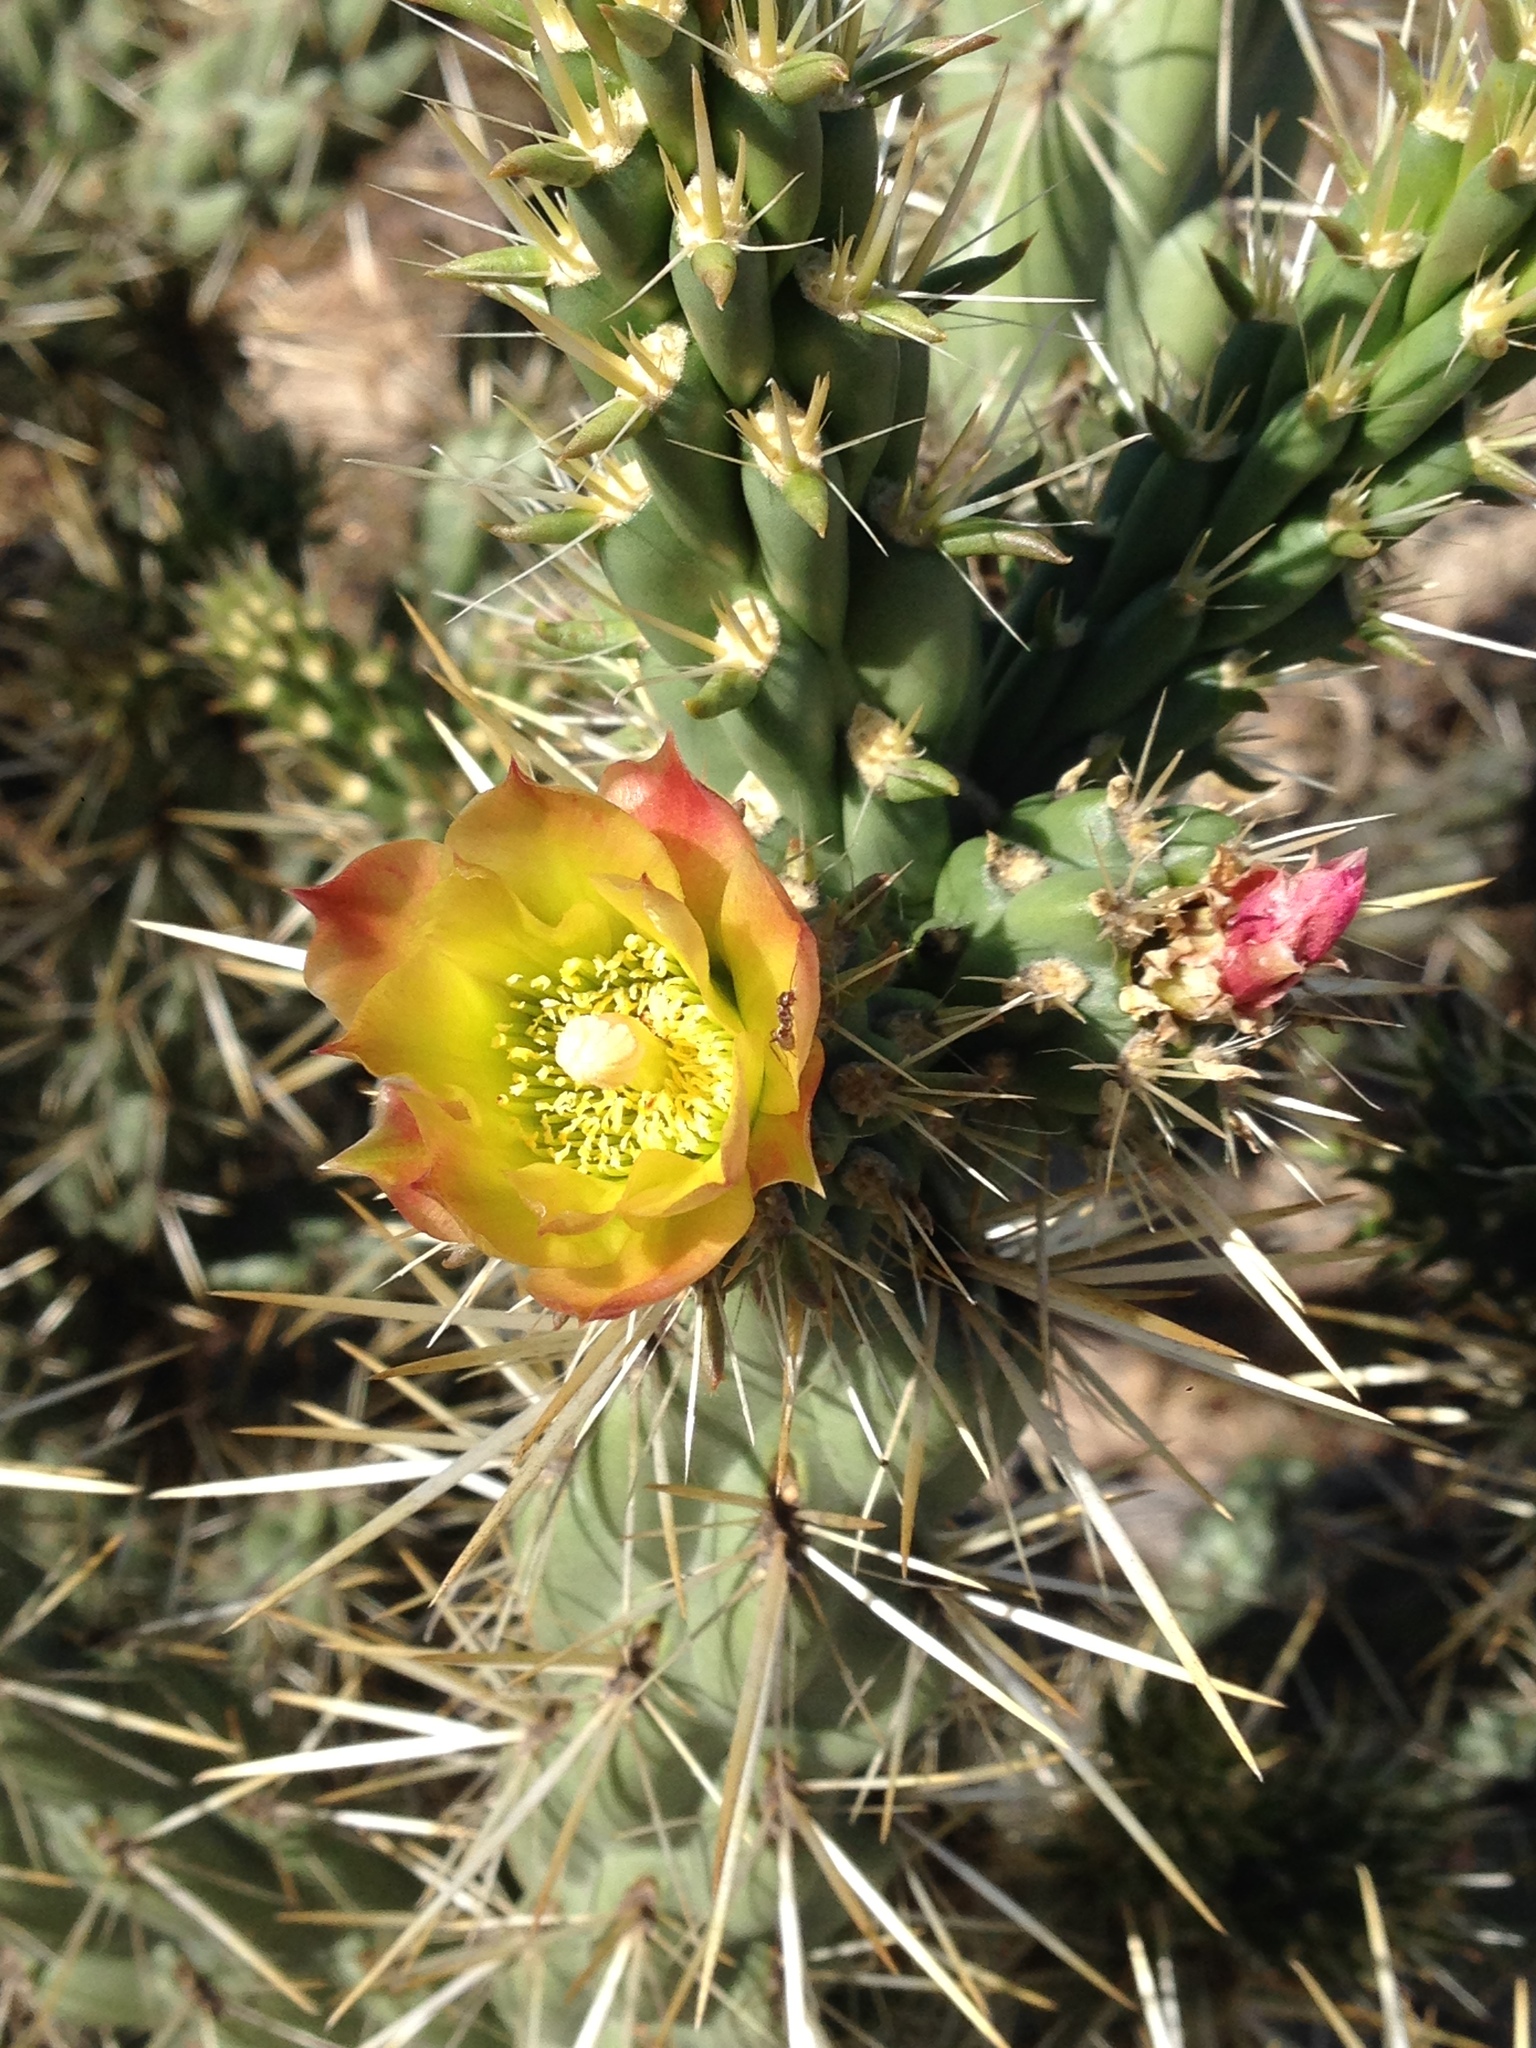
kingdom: Plantae
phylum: Tracheophyta
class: Magnoliopsida
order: Caryophyllales
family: Cactaceae
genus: Cylindropuntia
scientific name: Cylindropuntia bernardina
